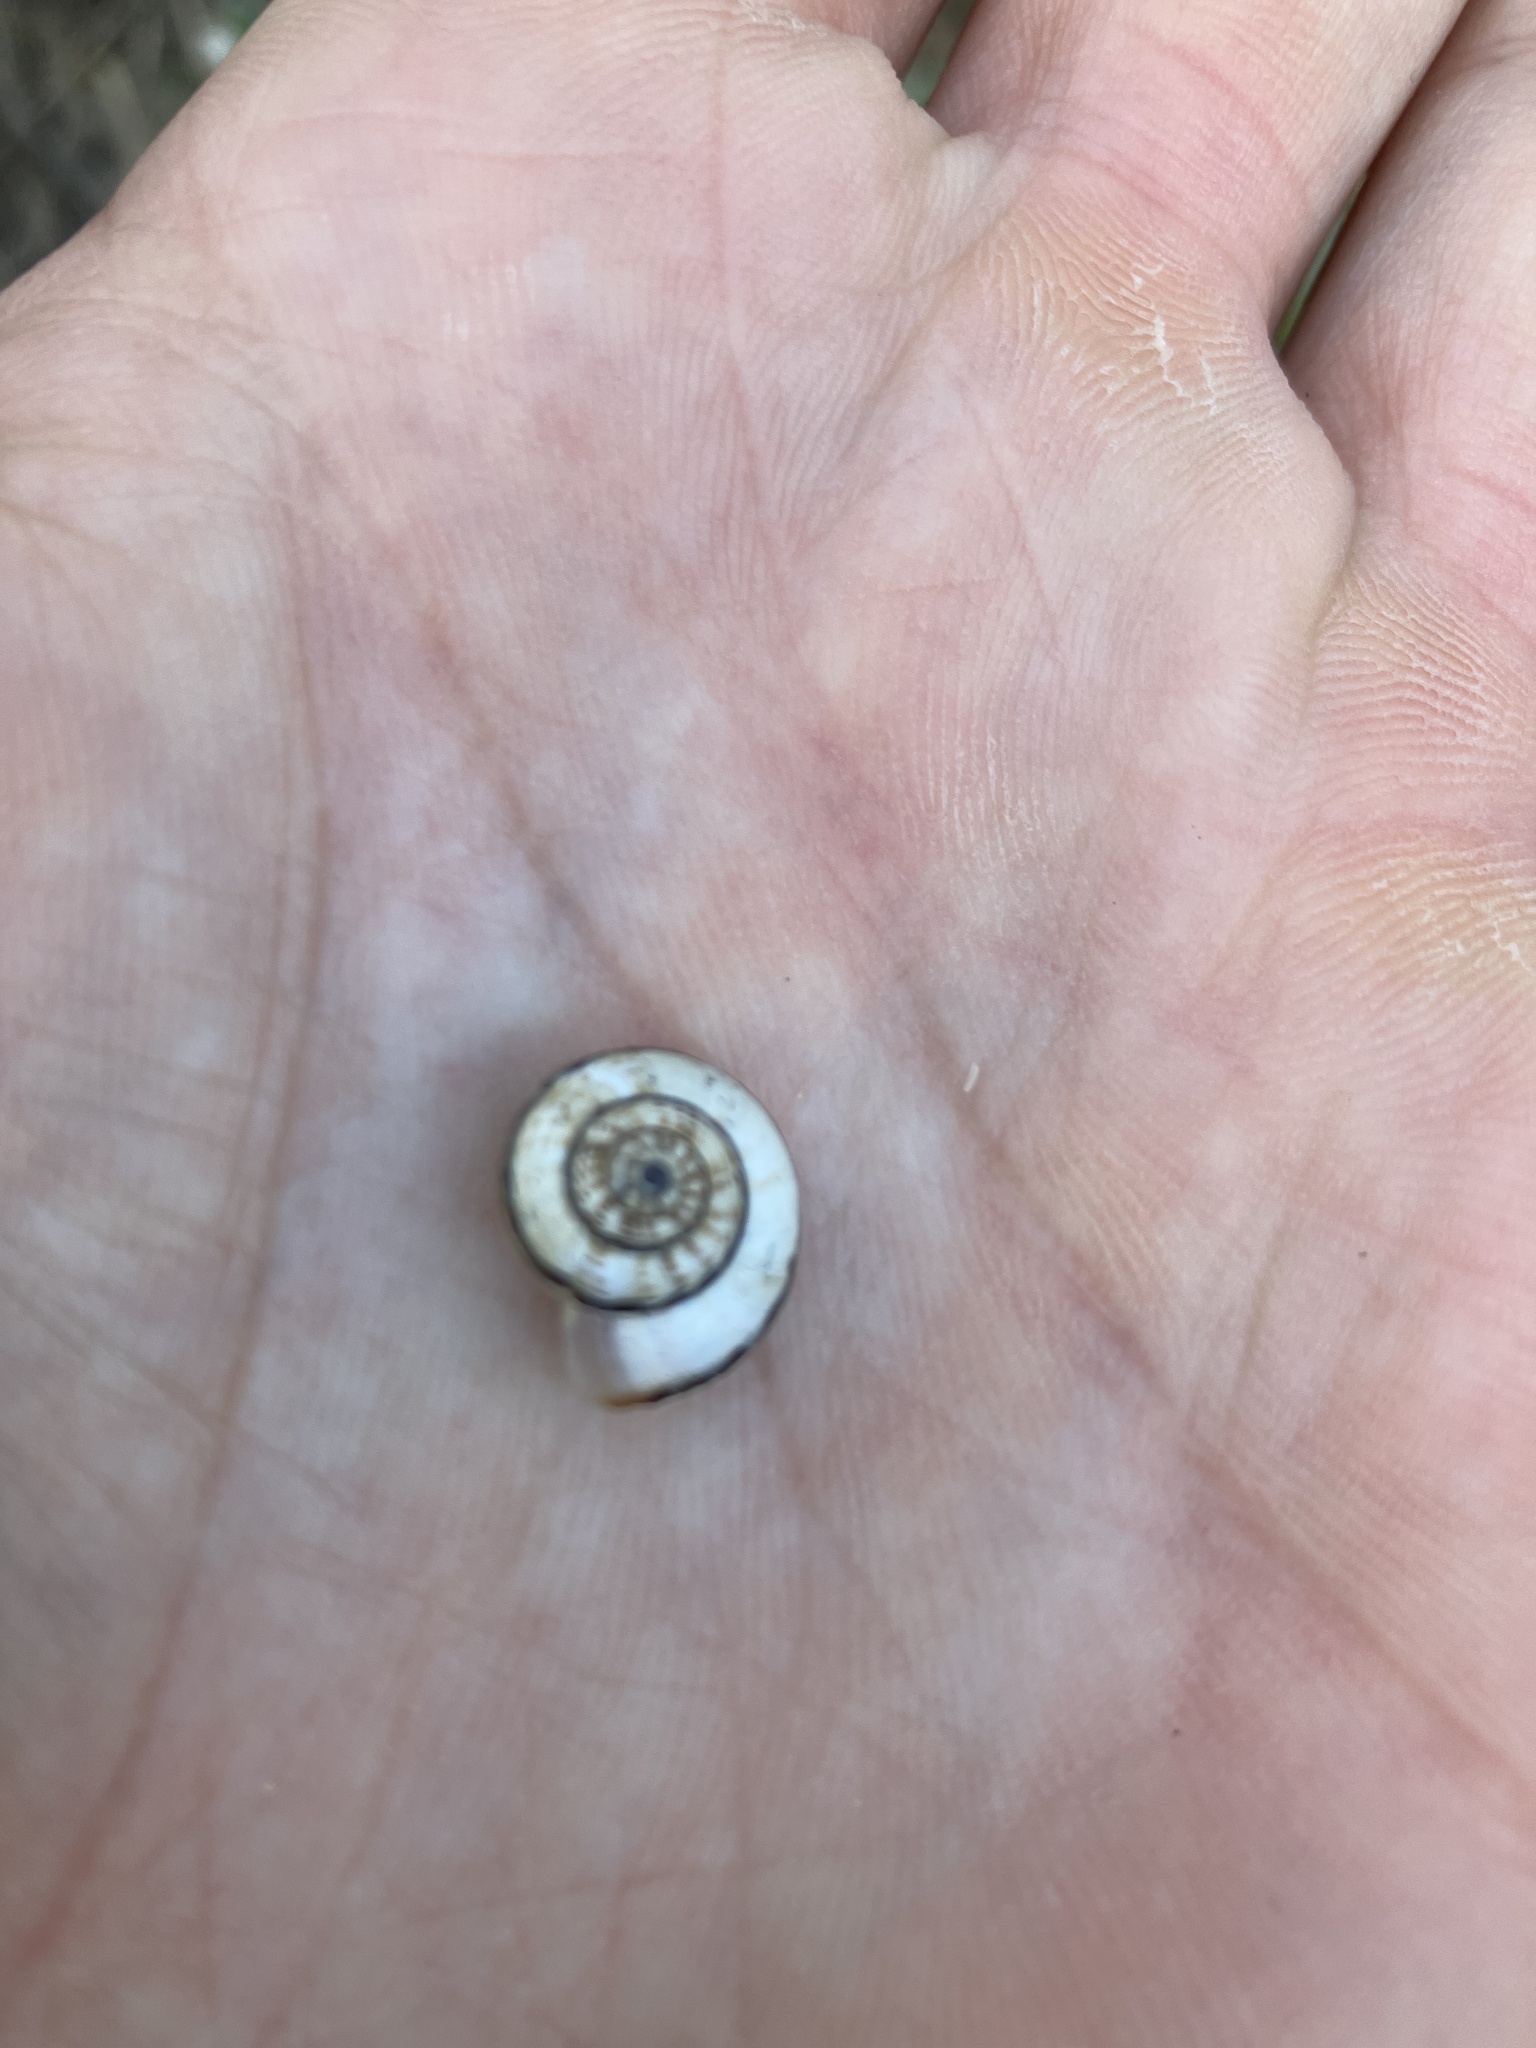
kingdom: Animalia
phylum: Mollusca
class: Gastropoda
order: Stylommatophora
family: Geomitridae
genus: Xeropicta
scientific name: Xeropicta krynickii
